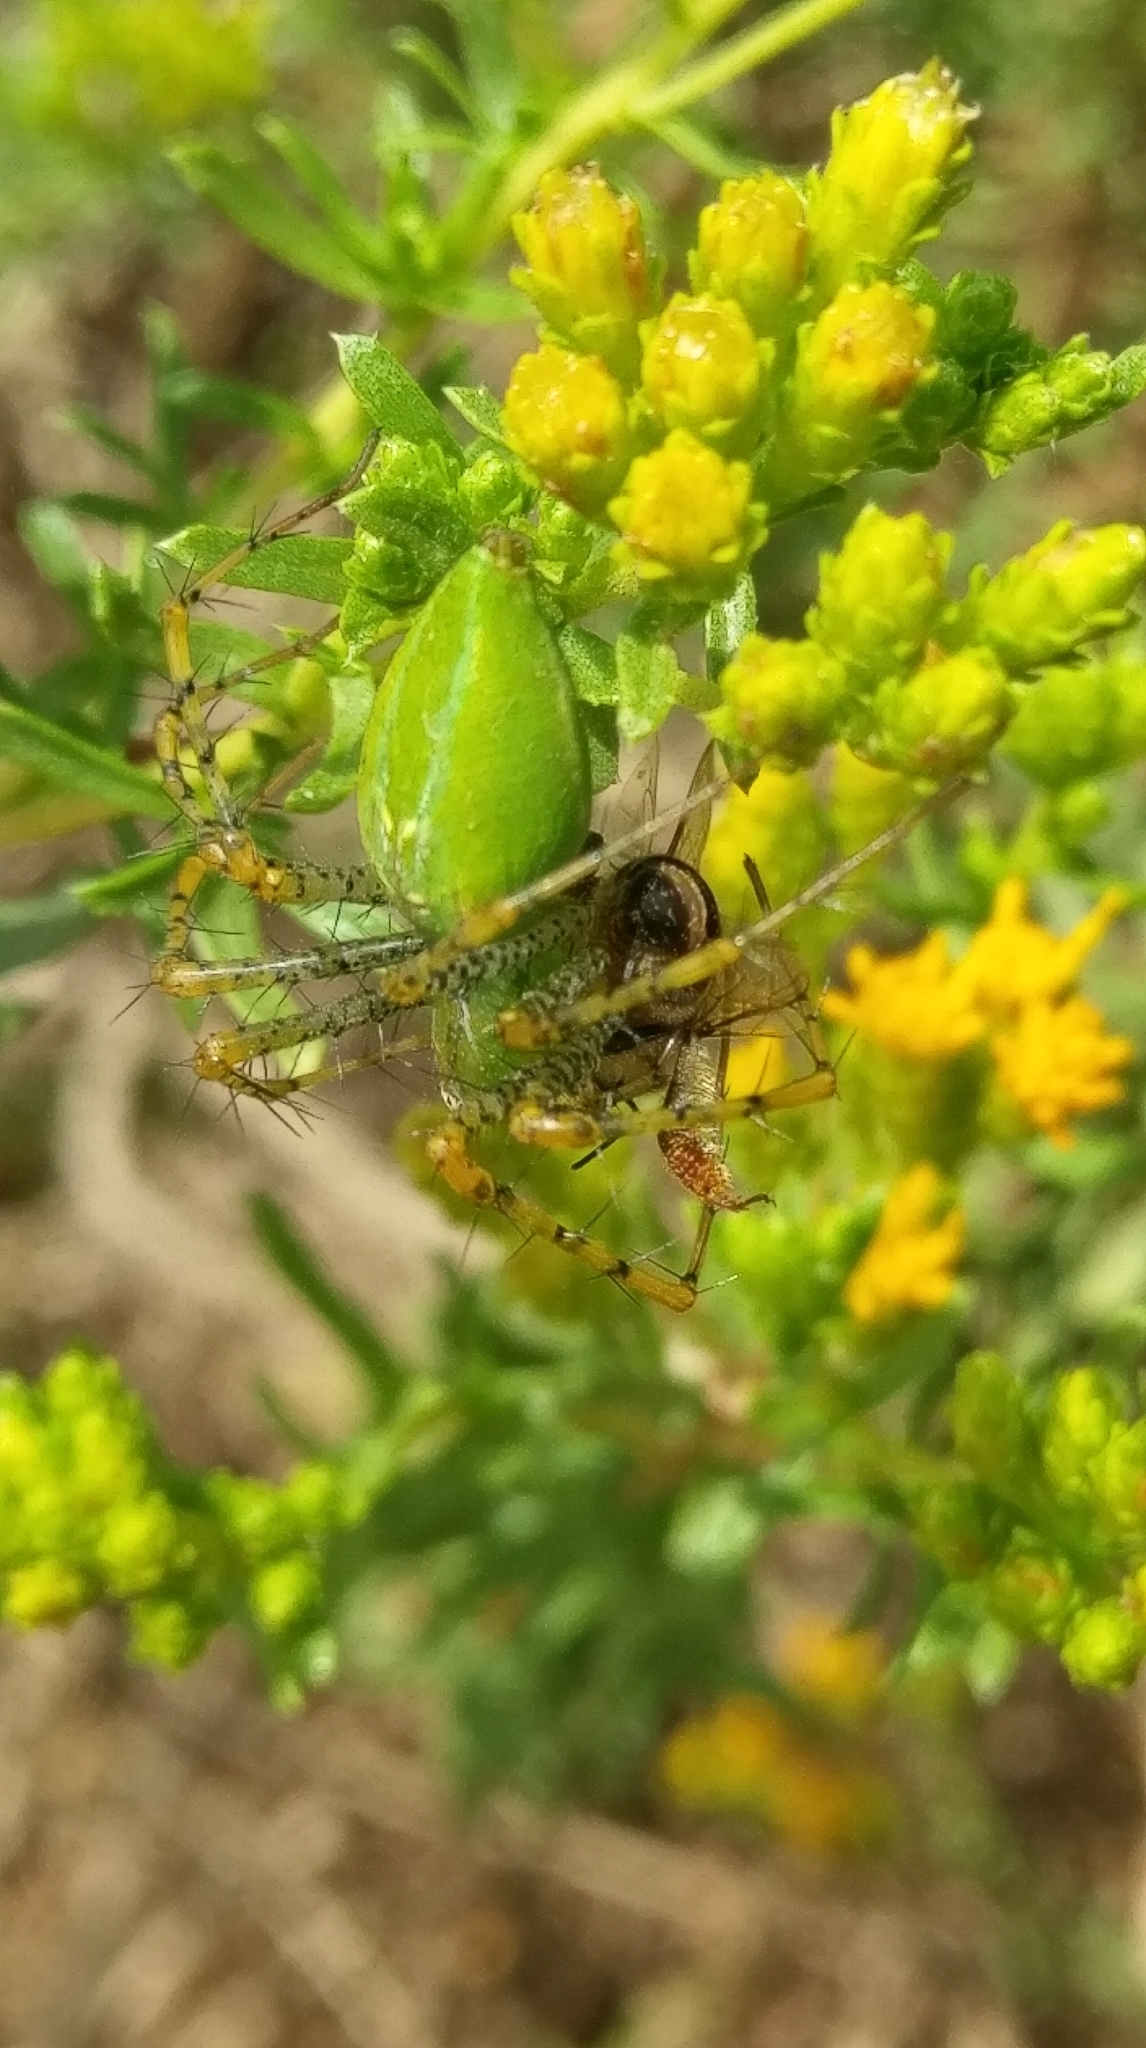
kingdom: Animalia
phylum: Arthropoda
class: Arachnida
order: Araneae
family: Oxyopidae
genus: Peucetia
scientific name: Peucetia viridans
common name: Lynx spiders
